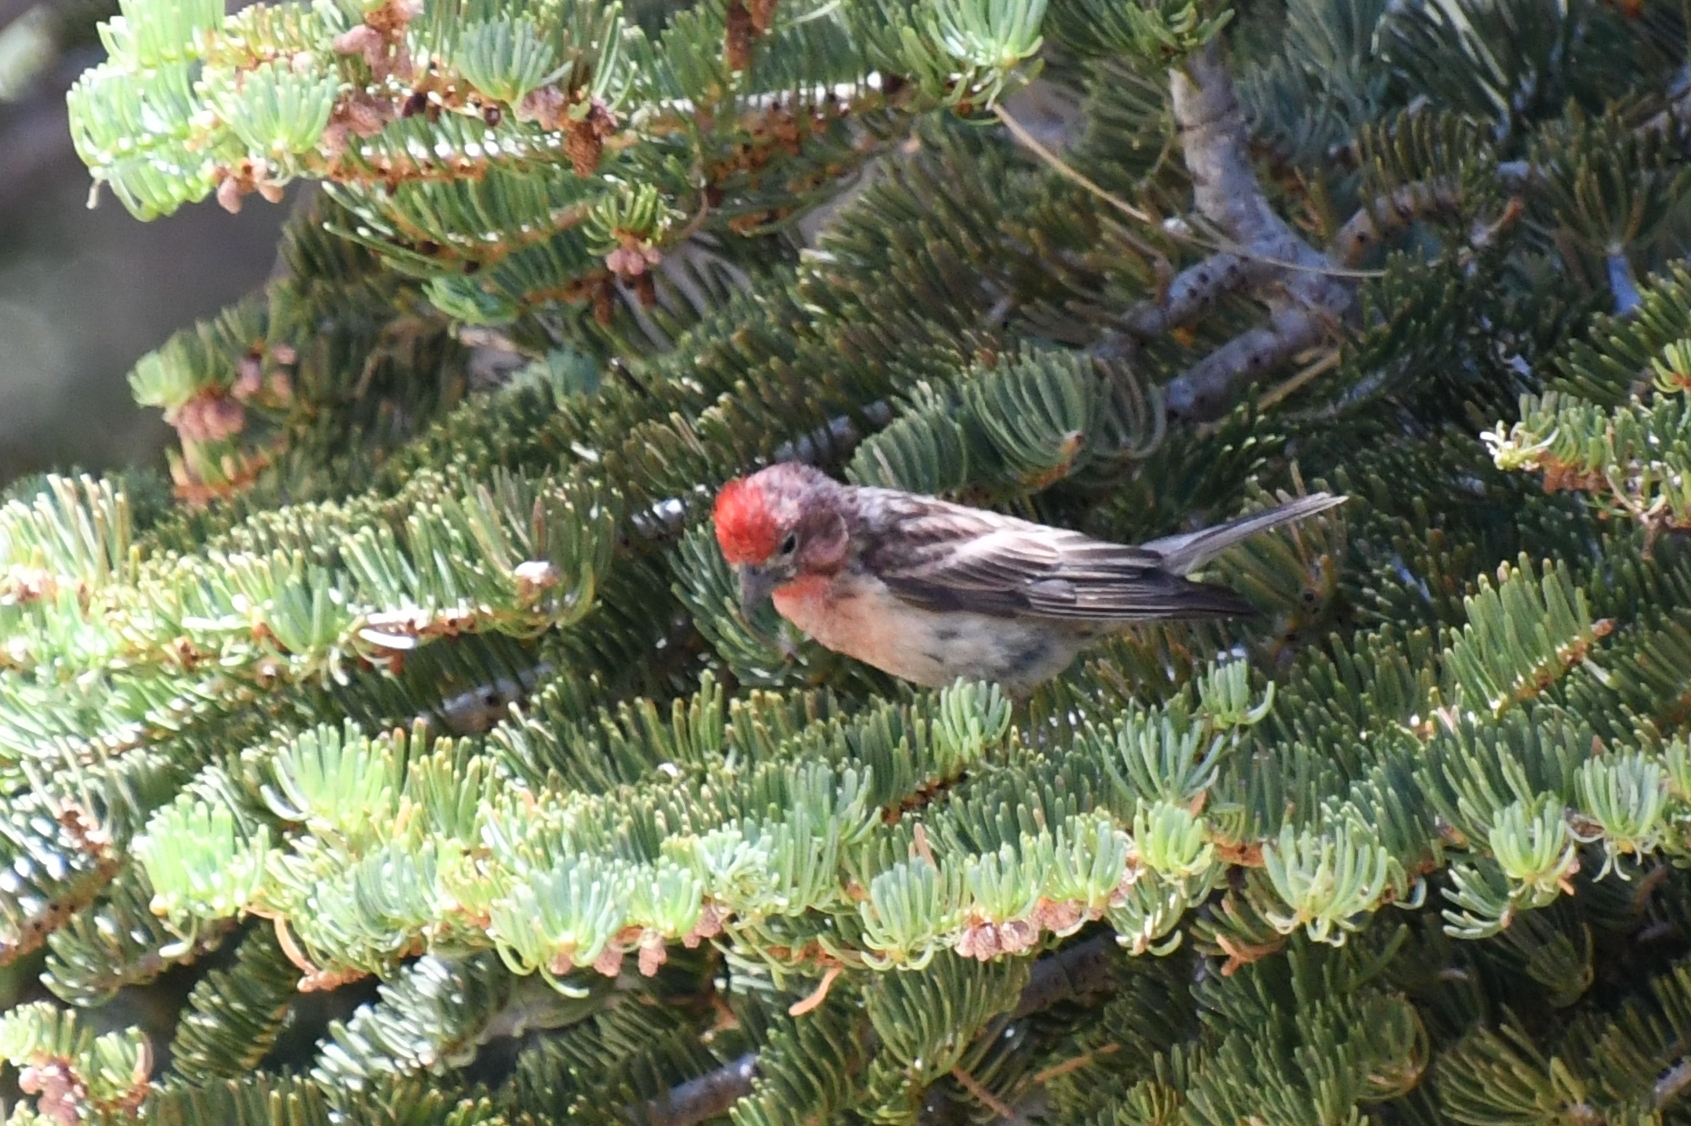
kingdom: Animalia
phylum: Chordata
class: Aves
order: Passeriformes
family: Fringillidae
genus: Haemorhous
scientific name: Haemorhous cassinii
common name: Cassin's finch
